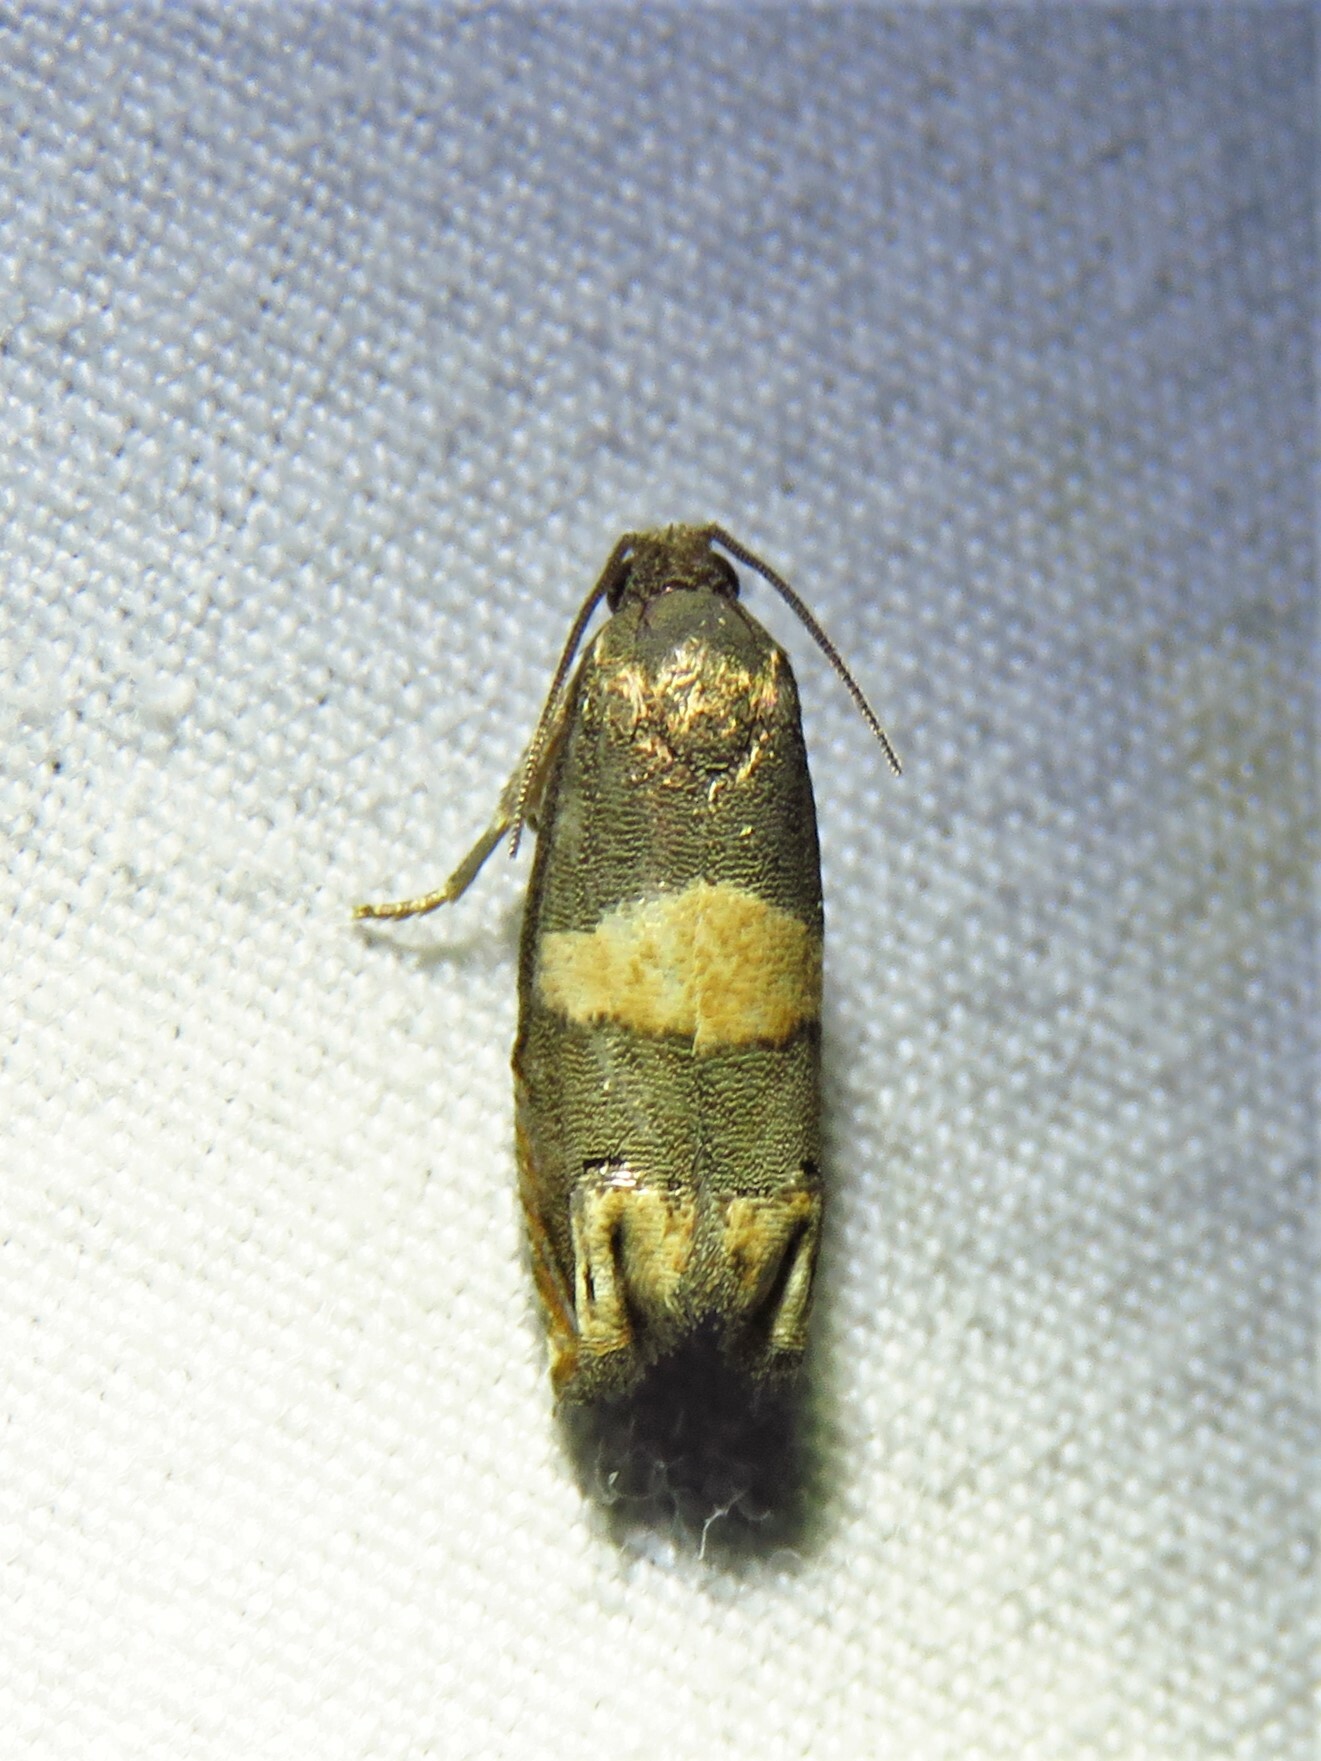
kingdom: Animalia
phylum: Arthropoda
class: Insecta
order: Lepidoptera
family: Tortricidae
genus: Epiblema
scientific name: Epiblema
